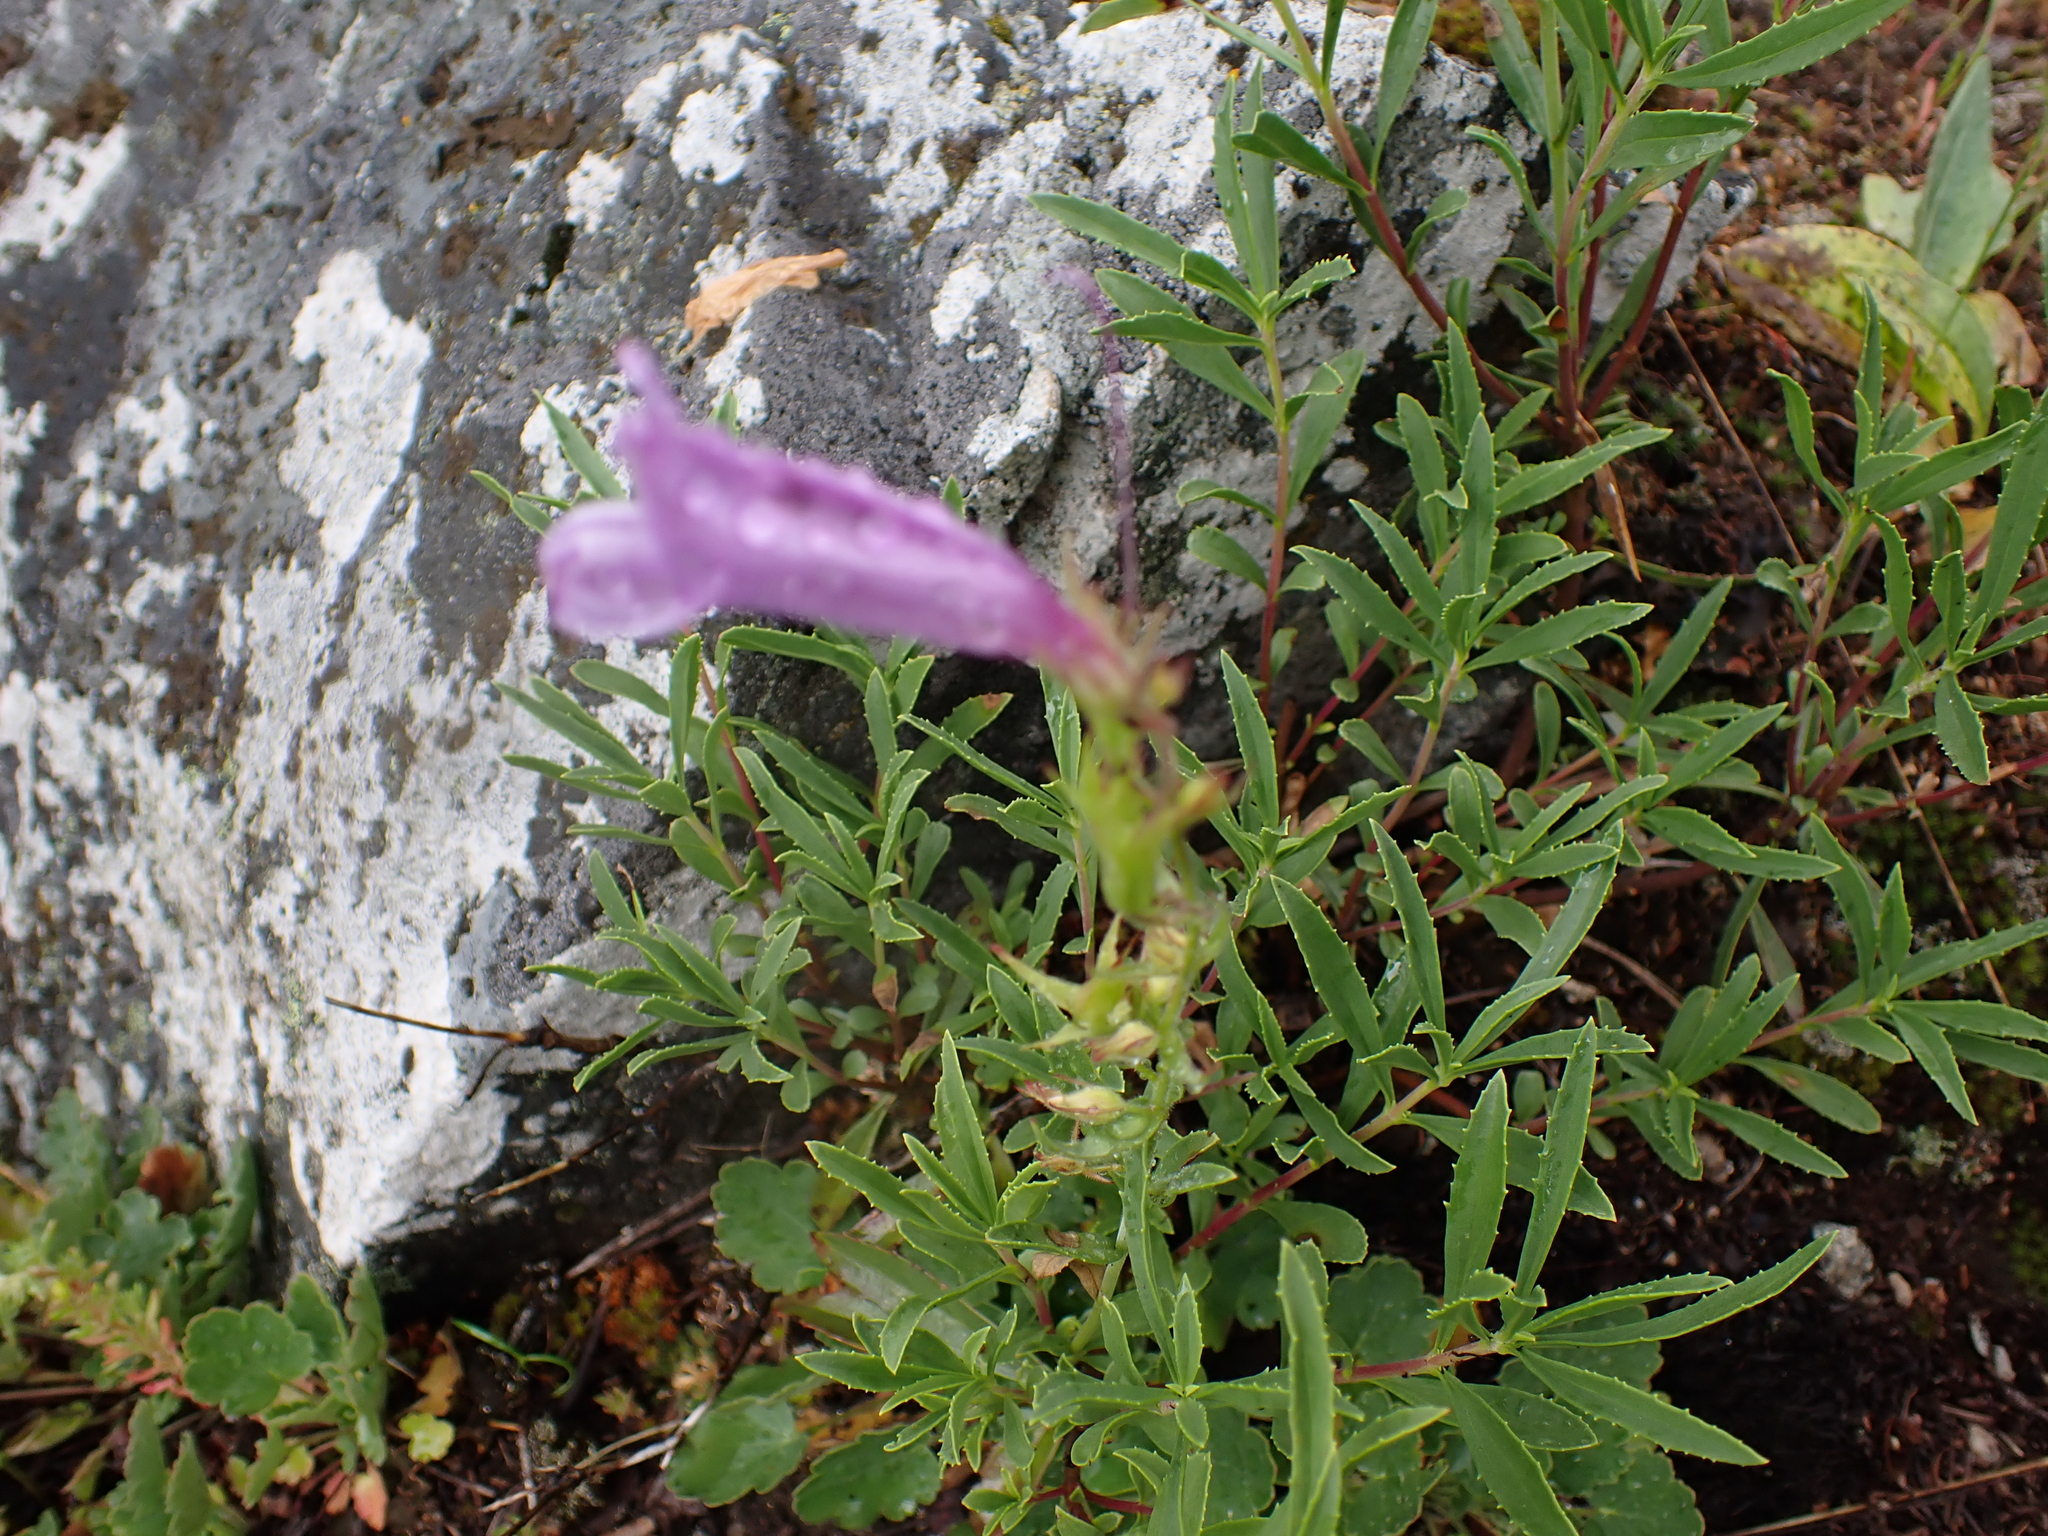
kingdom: Plantae
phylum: Tracheophyta
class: Magnoliopsida
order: Lamiales
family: Plantaginaceae
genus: Penstemon
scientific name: Penstemon fruticosus
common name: Bush penstemon
